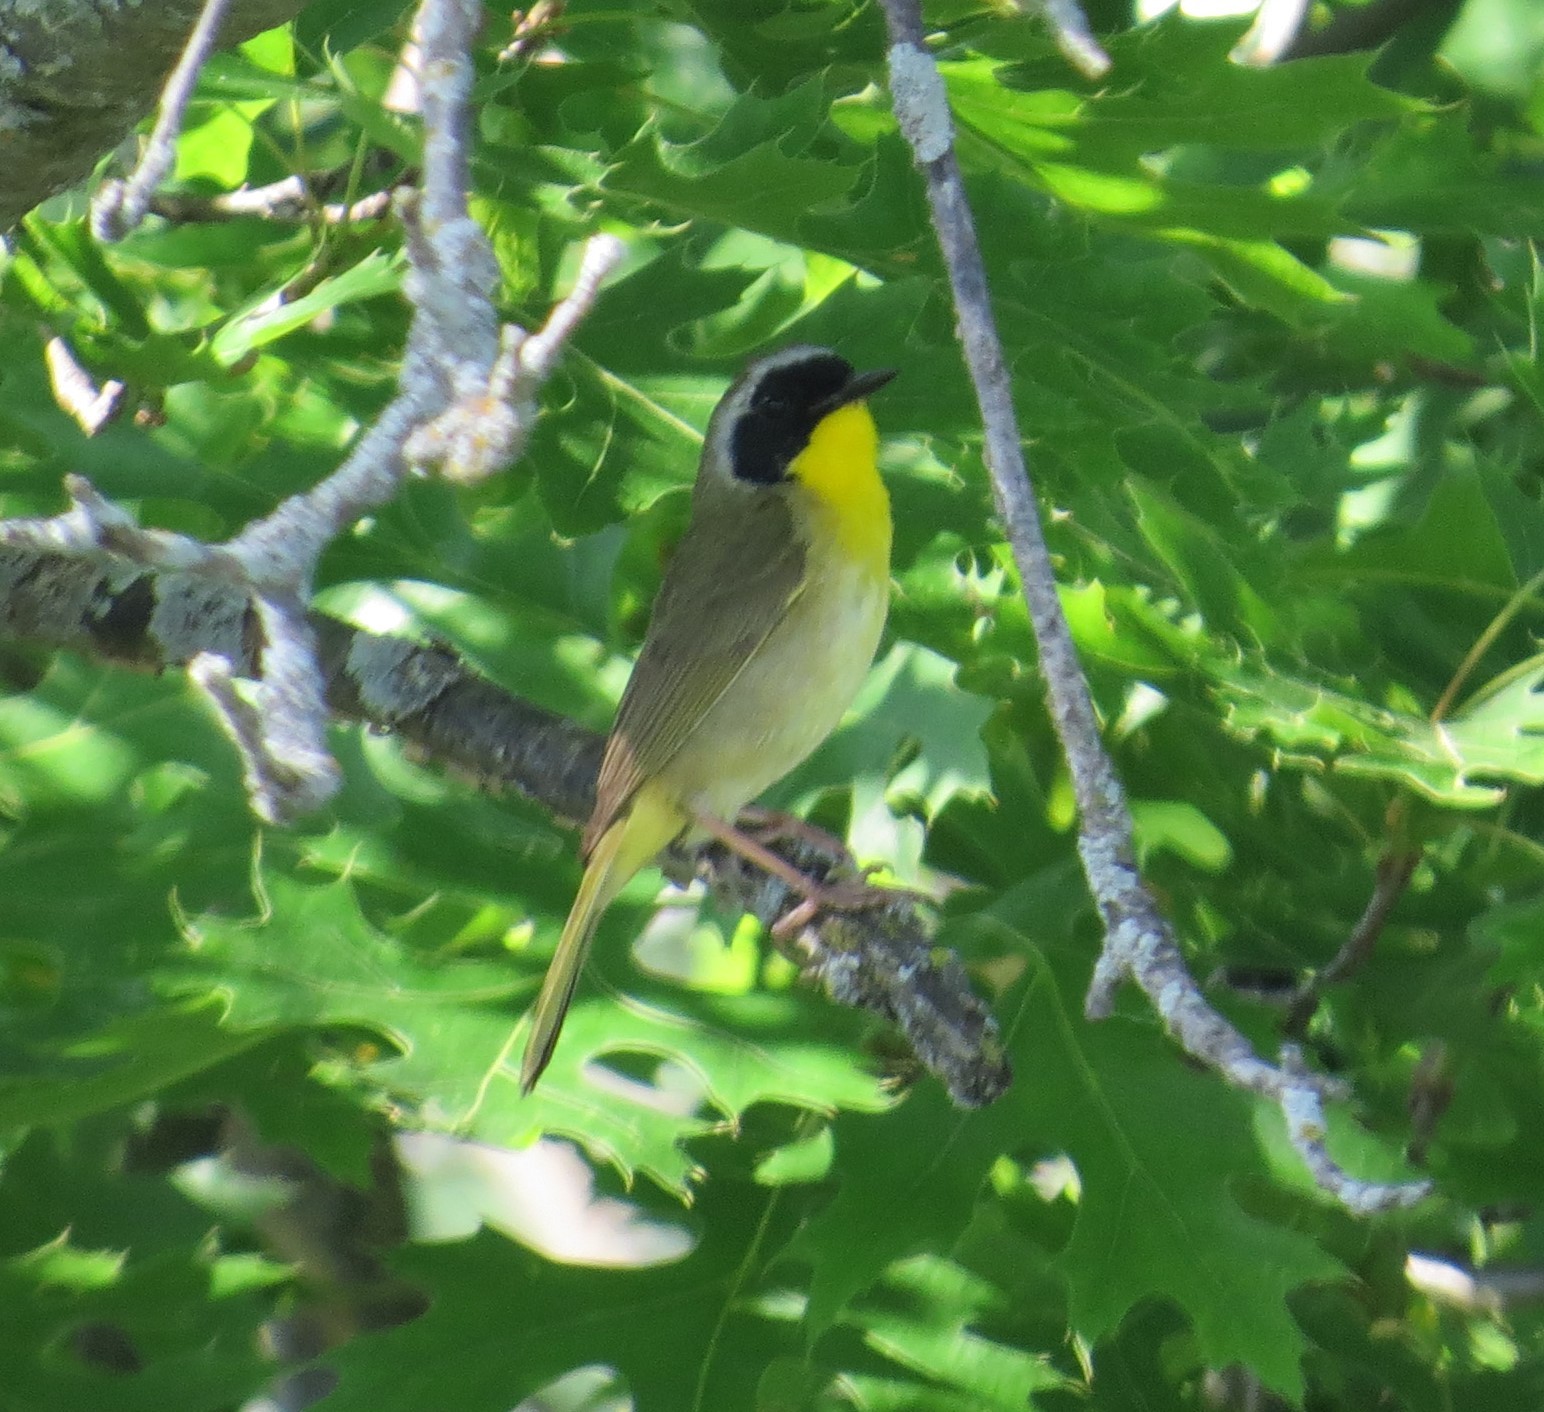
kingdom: Animalia
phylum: Chordata
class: Aves
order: Passeriformes
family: Parulidae
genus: Geothlypis
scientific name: Geothlypis trichas
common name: Common yellowthroat
